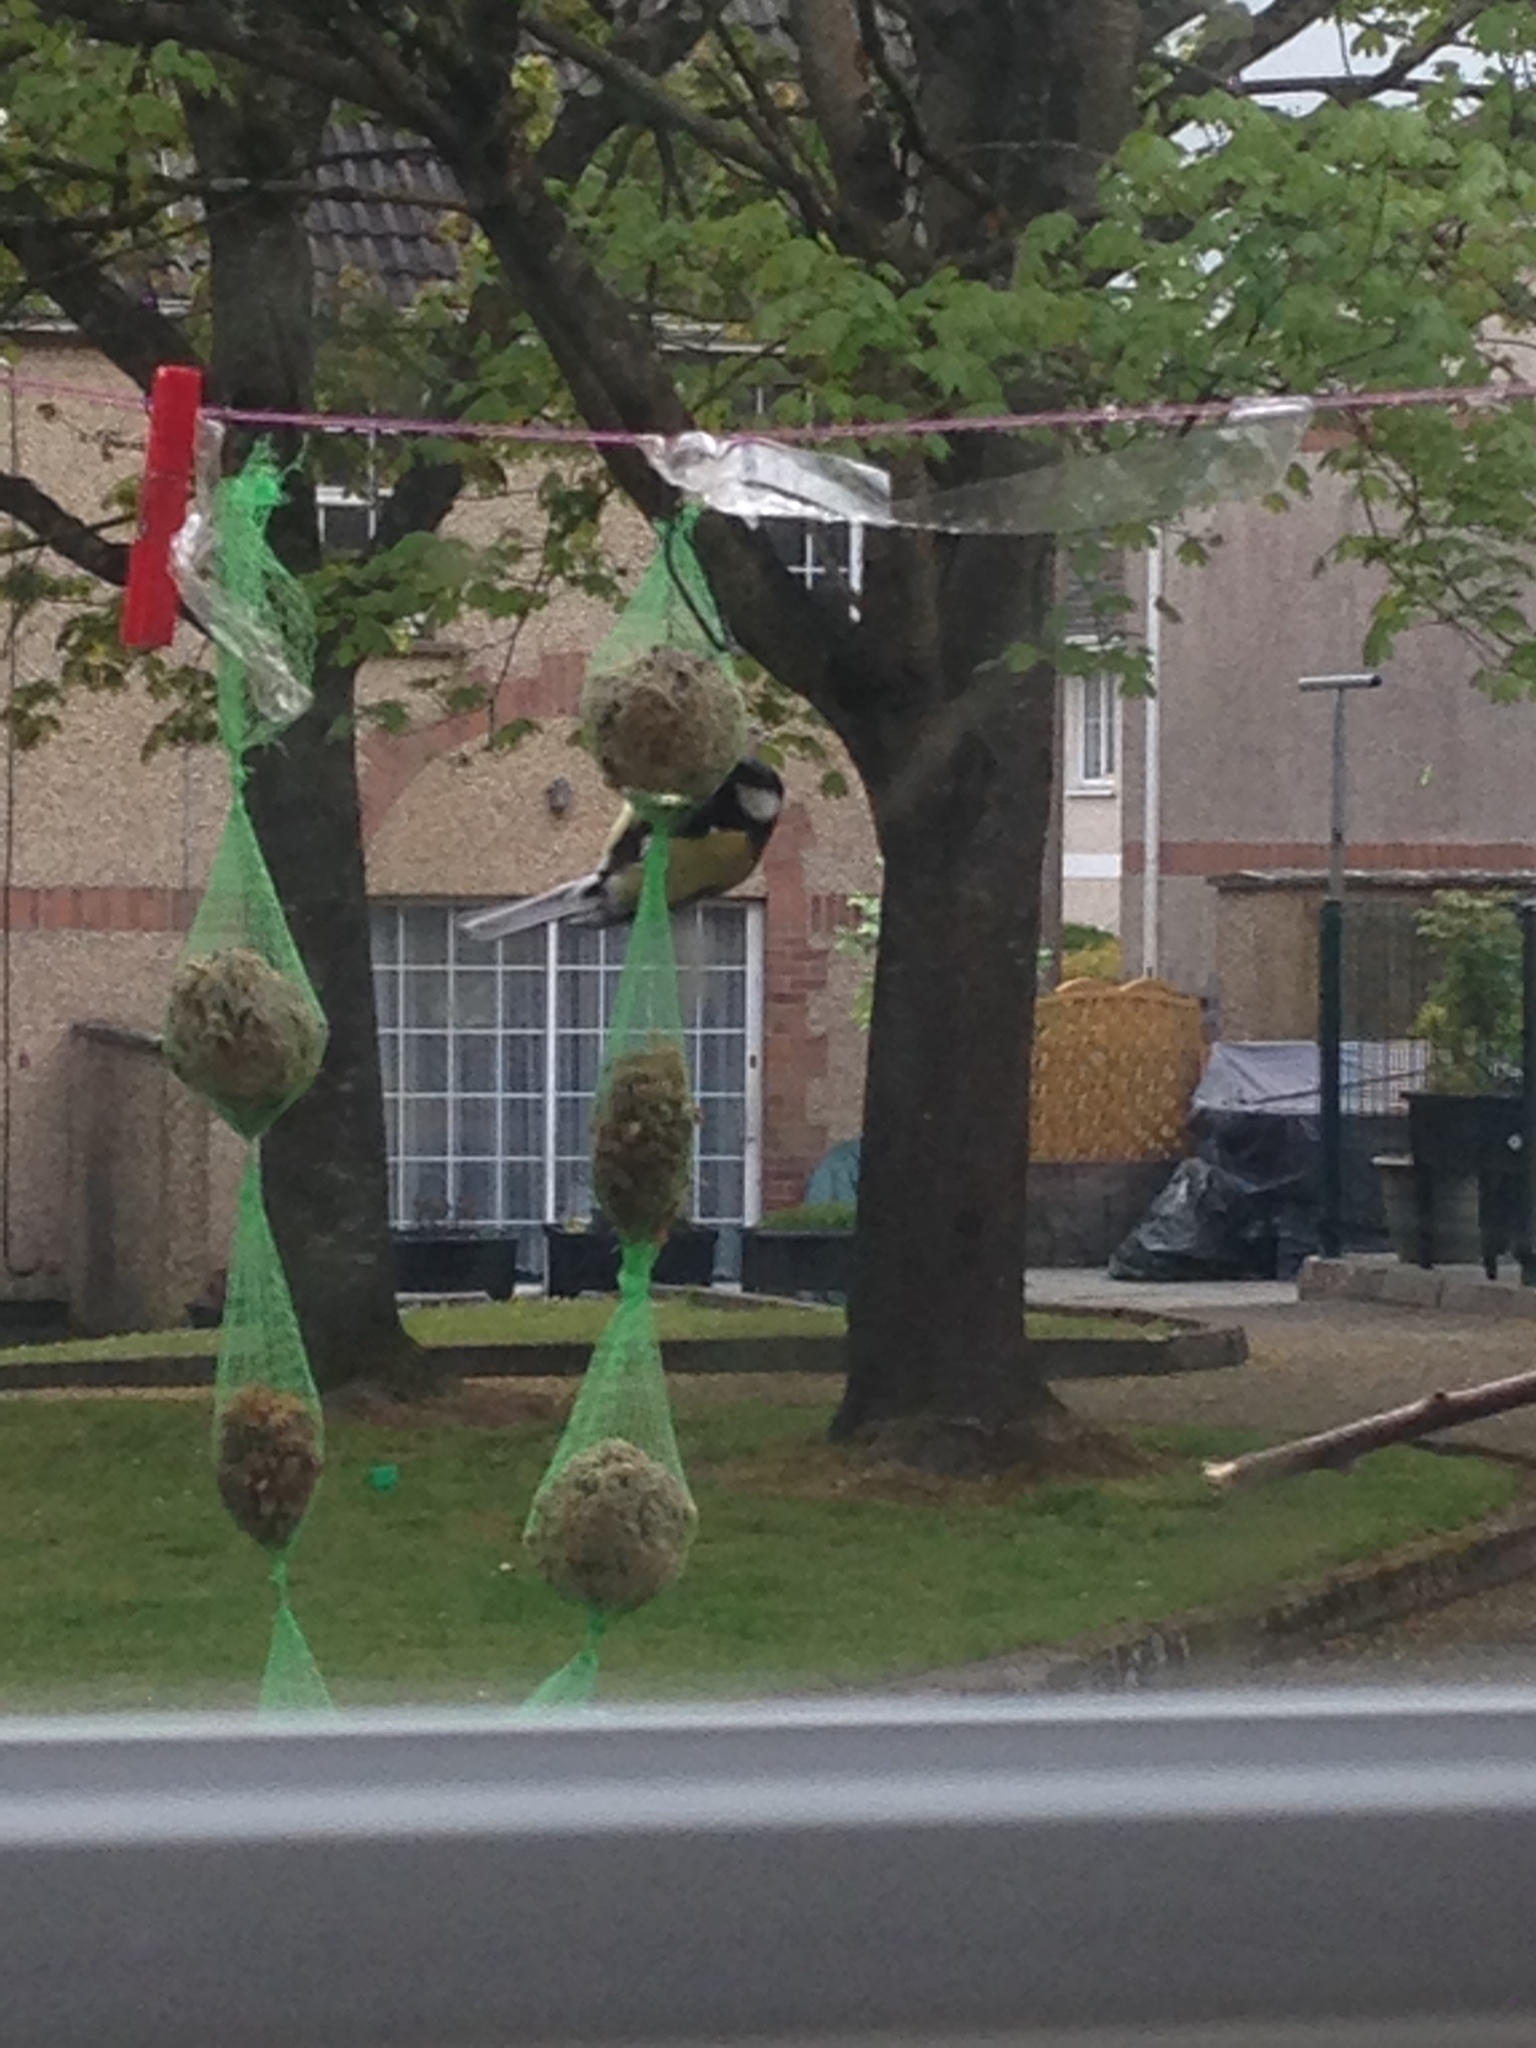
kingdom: Animalia
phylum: Chordata
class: Aves
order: Passeriformes
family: Paridae
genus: Parus
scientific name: Parus major
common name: Great tit
